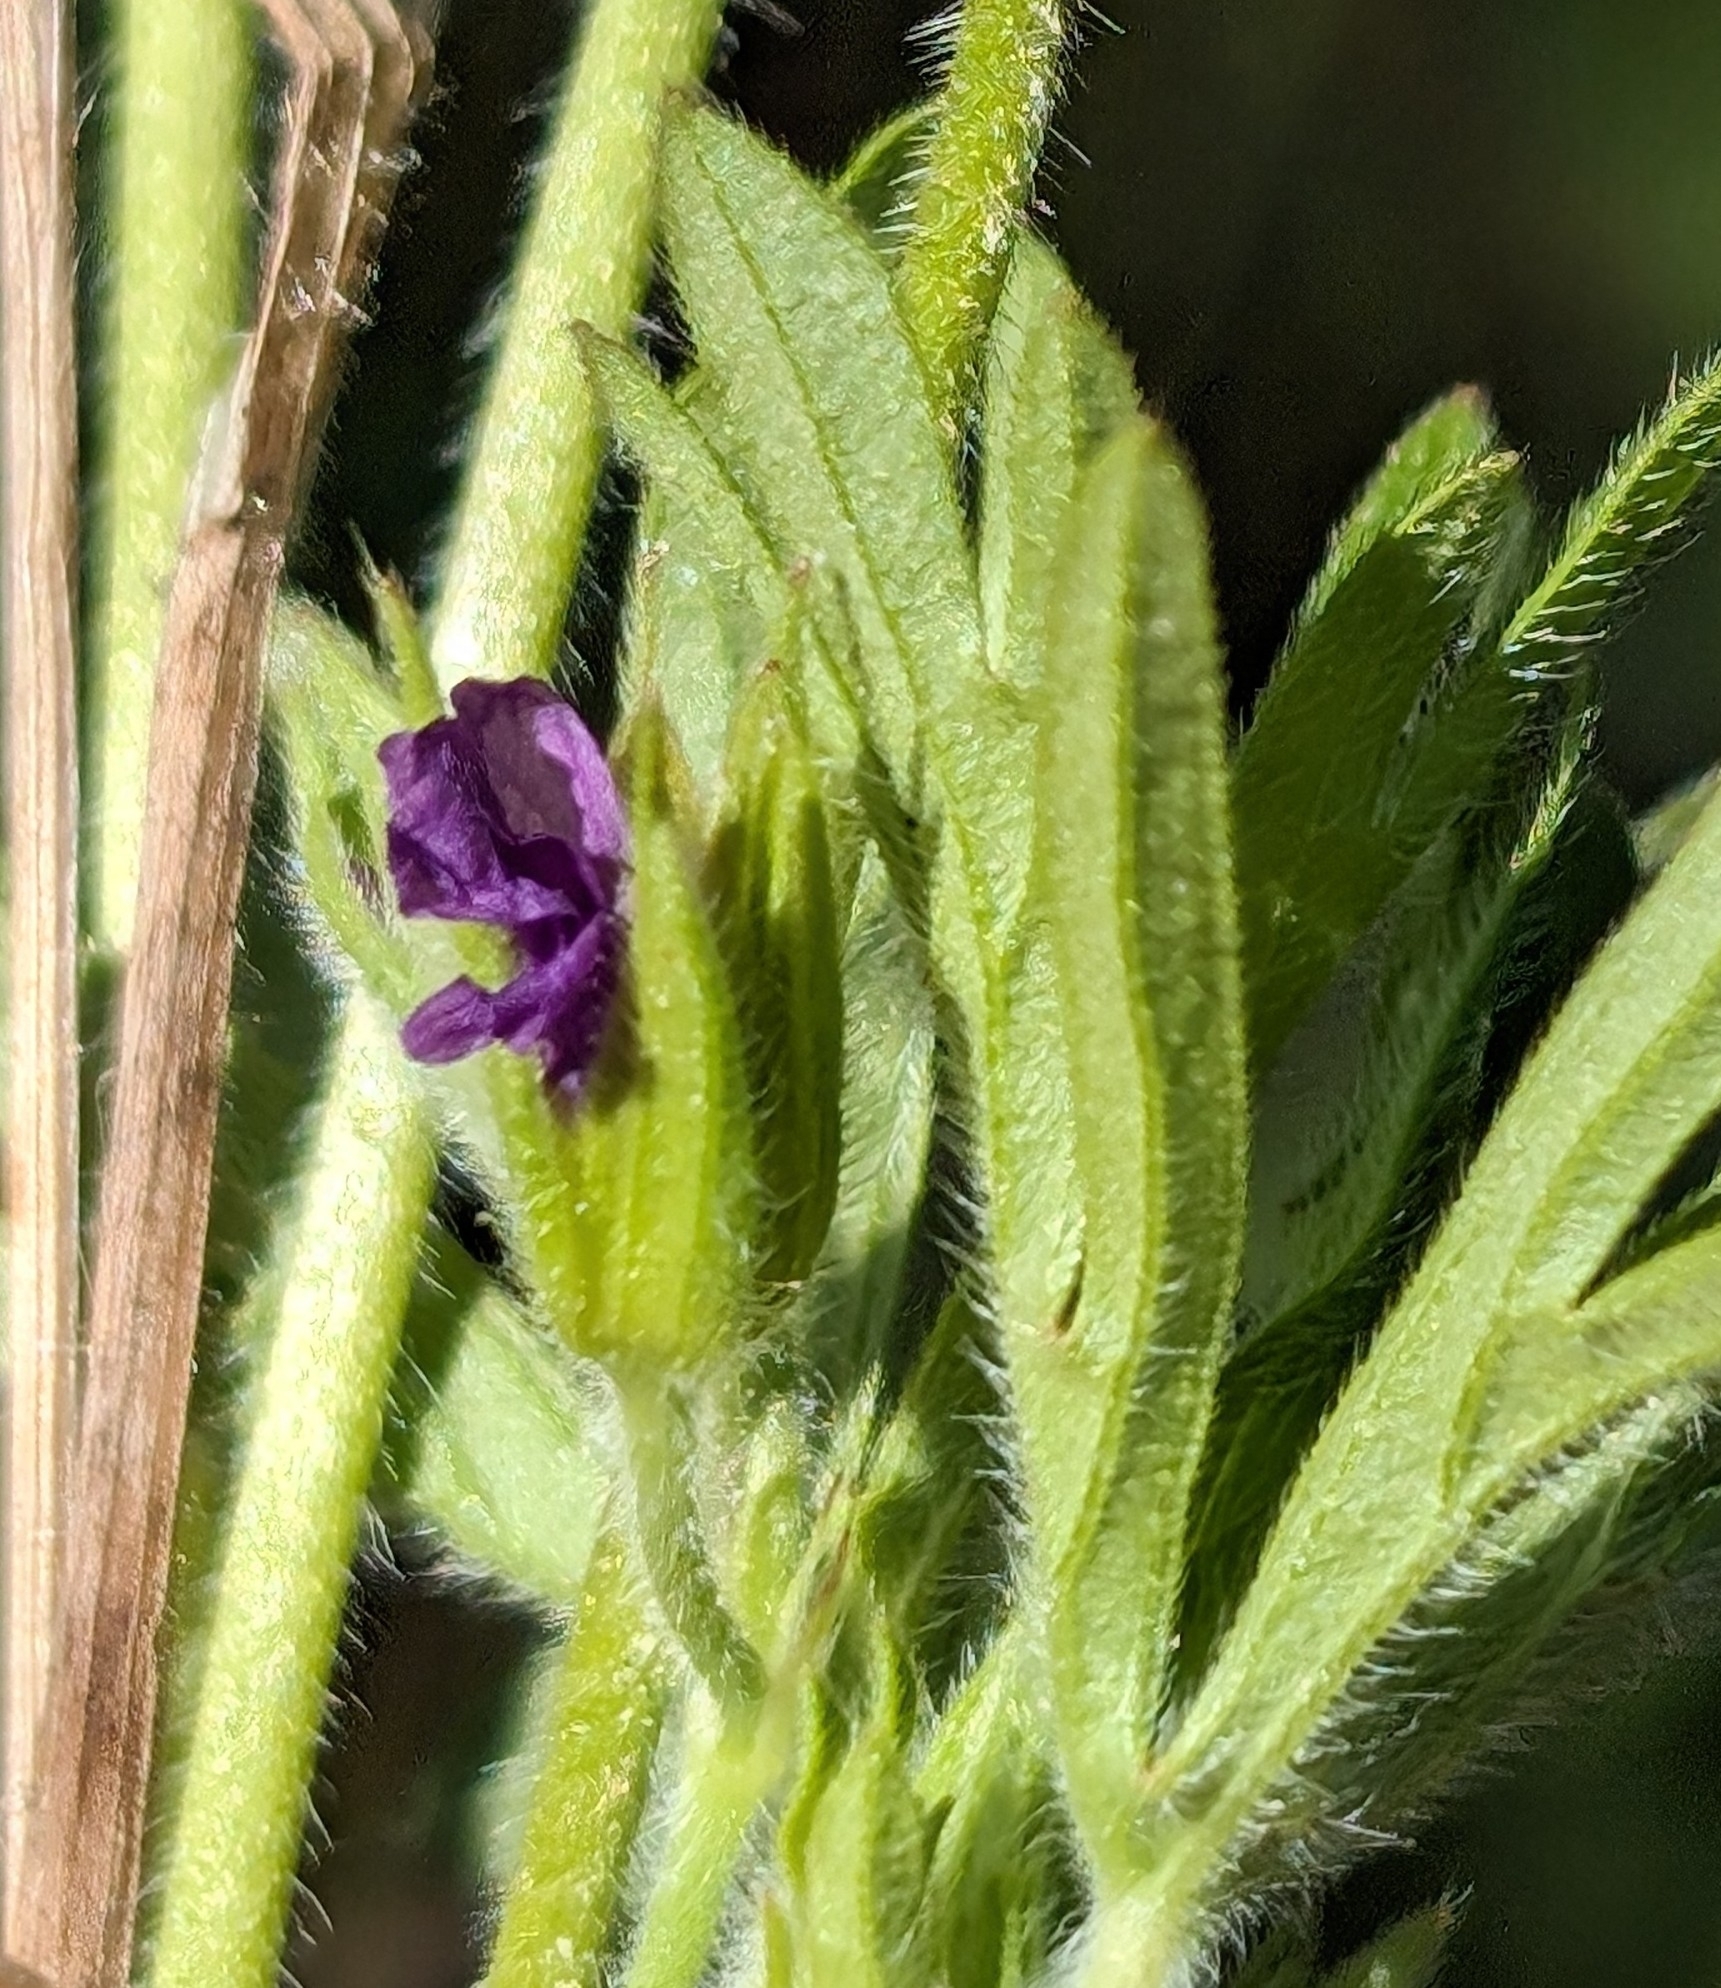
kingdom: Plantae
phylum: Tracheophyta
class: Magnoliopsida
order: Geraniales
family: Geraniaceae
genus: Geranium
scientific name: Geranium dissectum
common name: Cut-leaved crane's-bill
